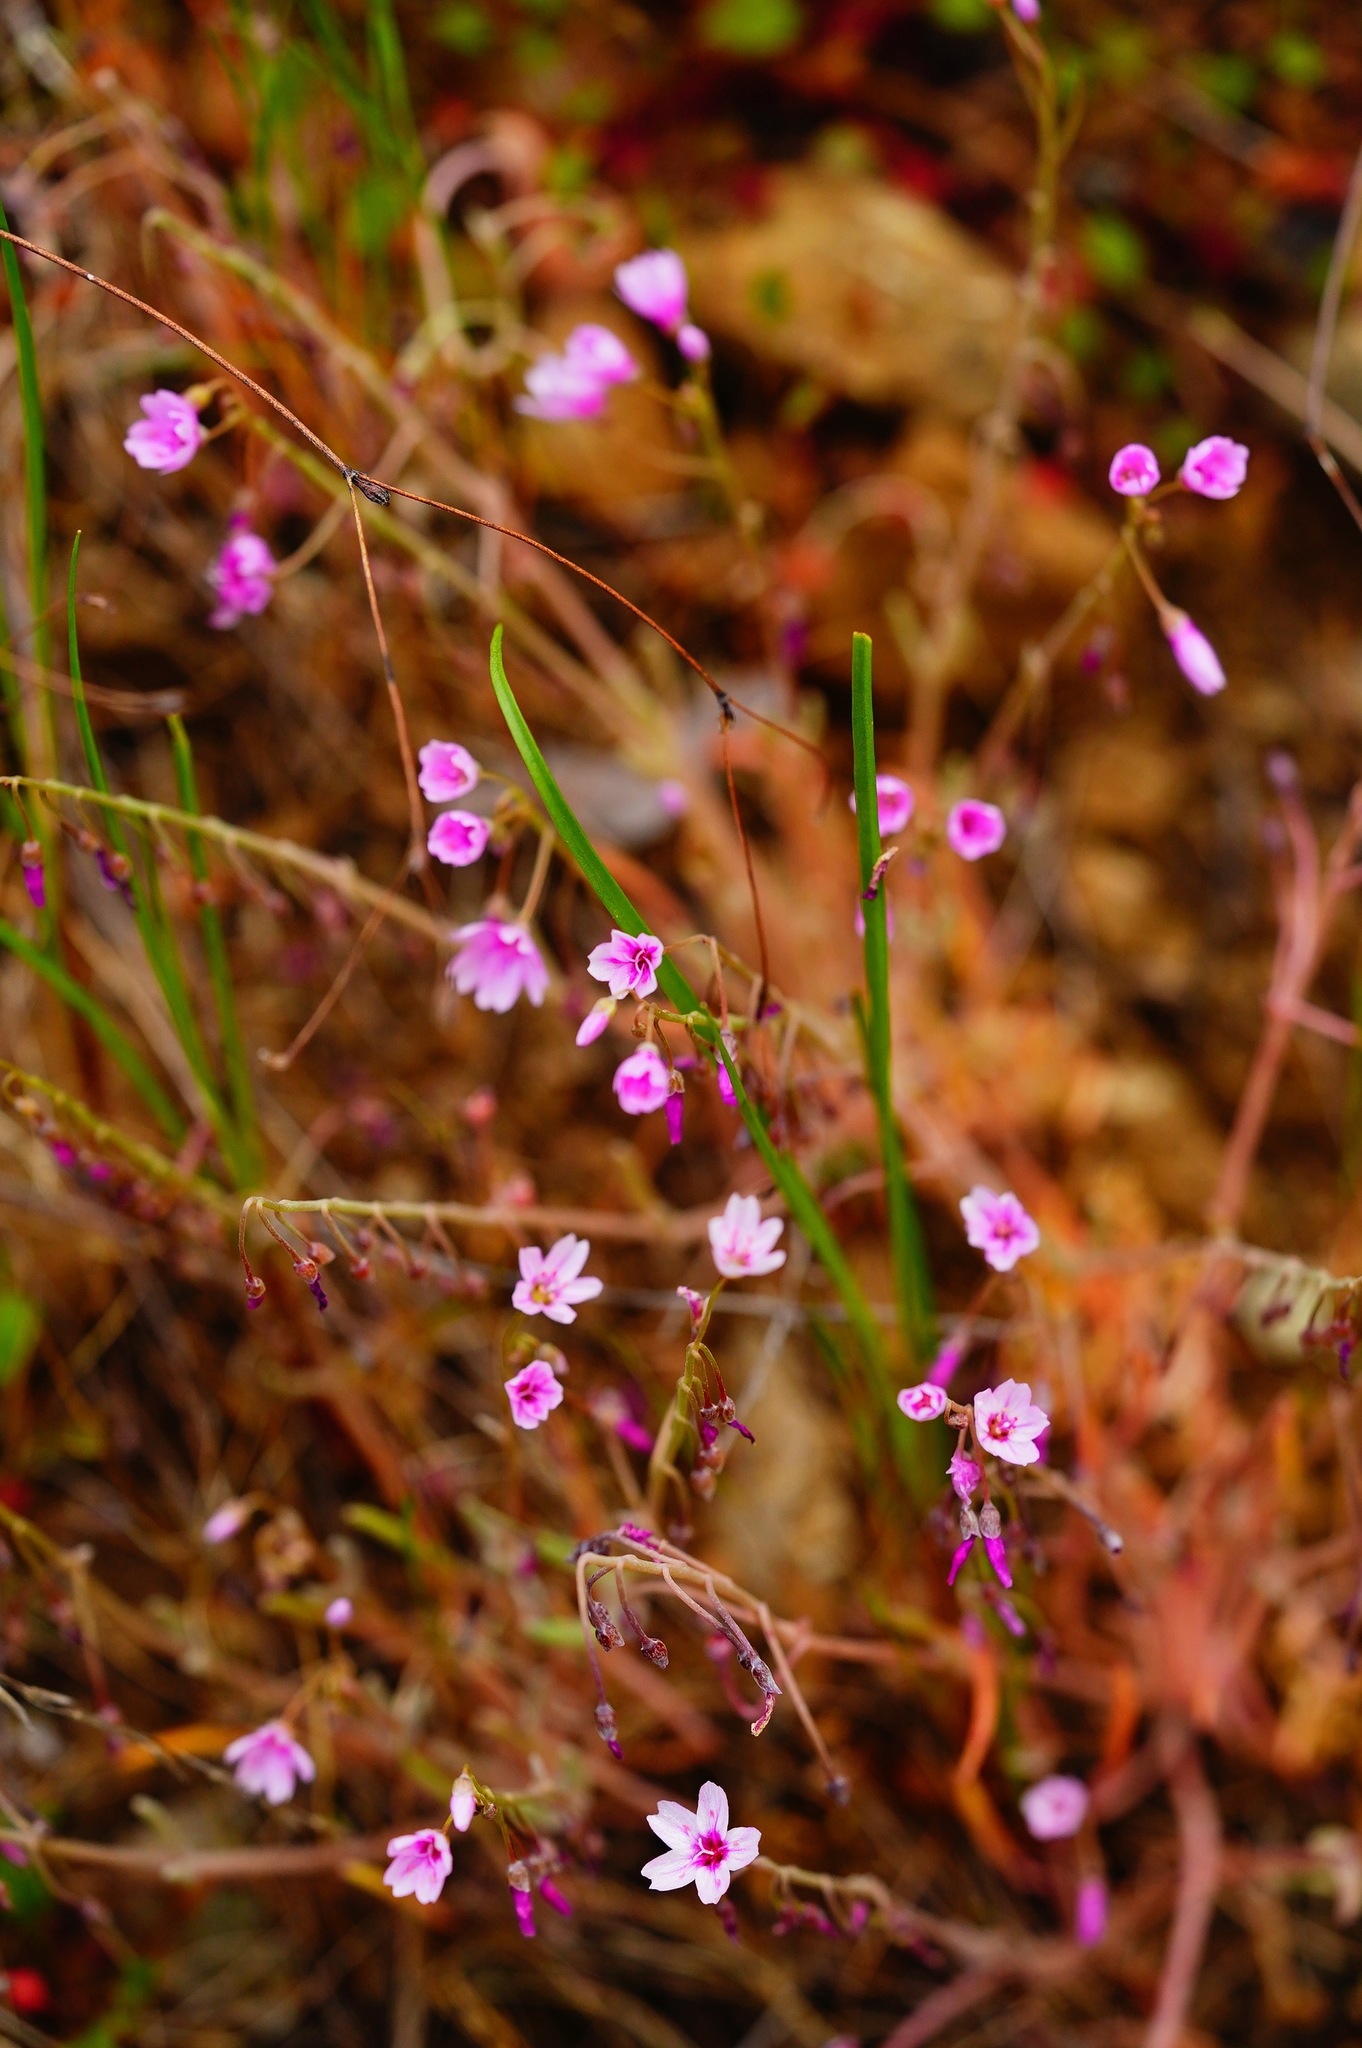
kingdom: Plantae
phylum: Tracheophyta
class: Magnoliopsida
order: Caryophyllales
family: Montiaceae
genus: Claytonia
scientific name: Claytonia gypsophiloides
